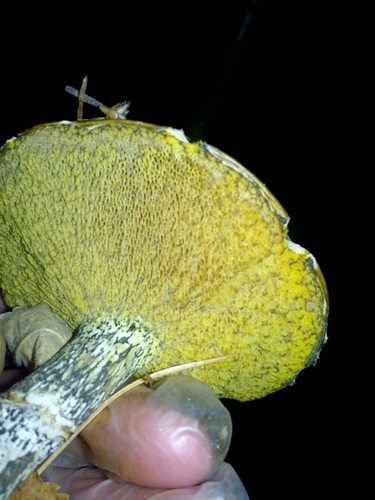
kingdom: Fungi
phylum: Basidiomycota
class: Agaricomycetes
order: Boletales
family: Suillaceae
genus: Suillus
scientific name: Suillus acidus
